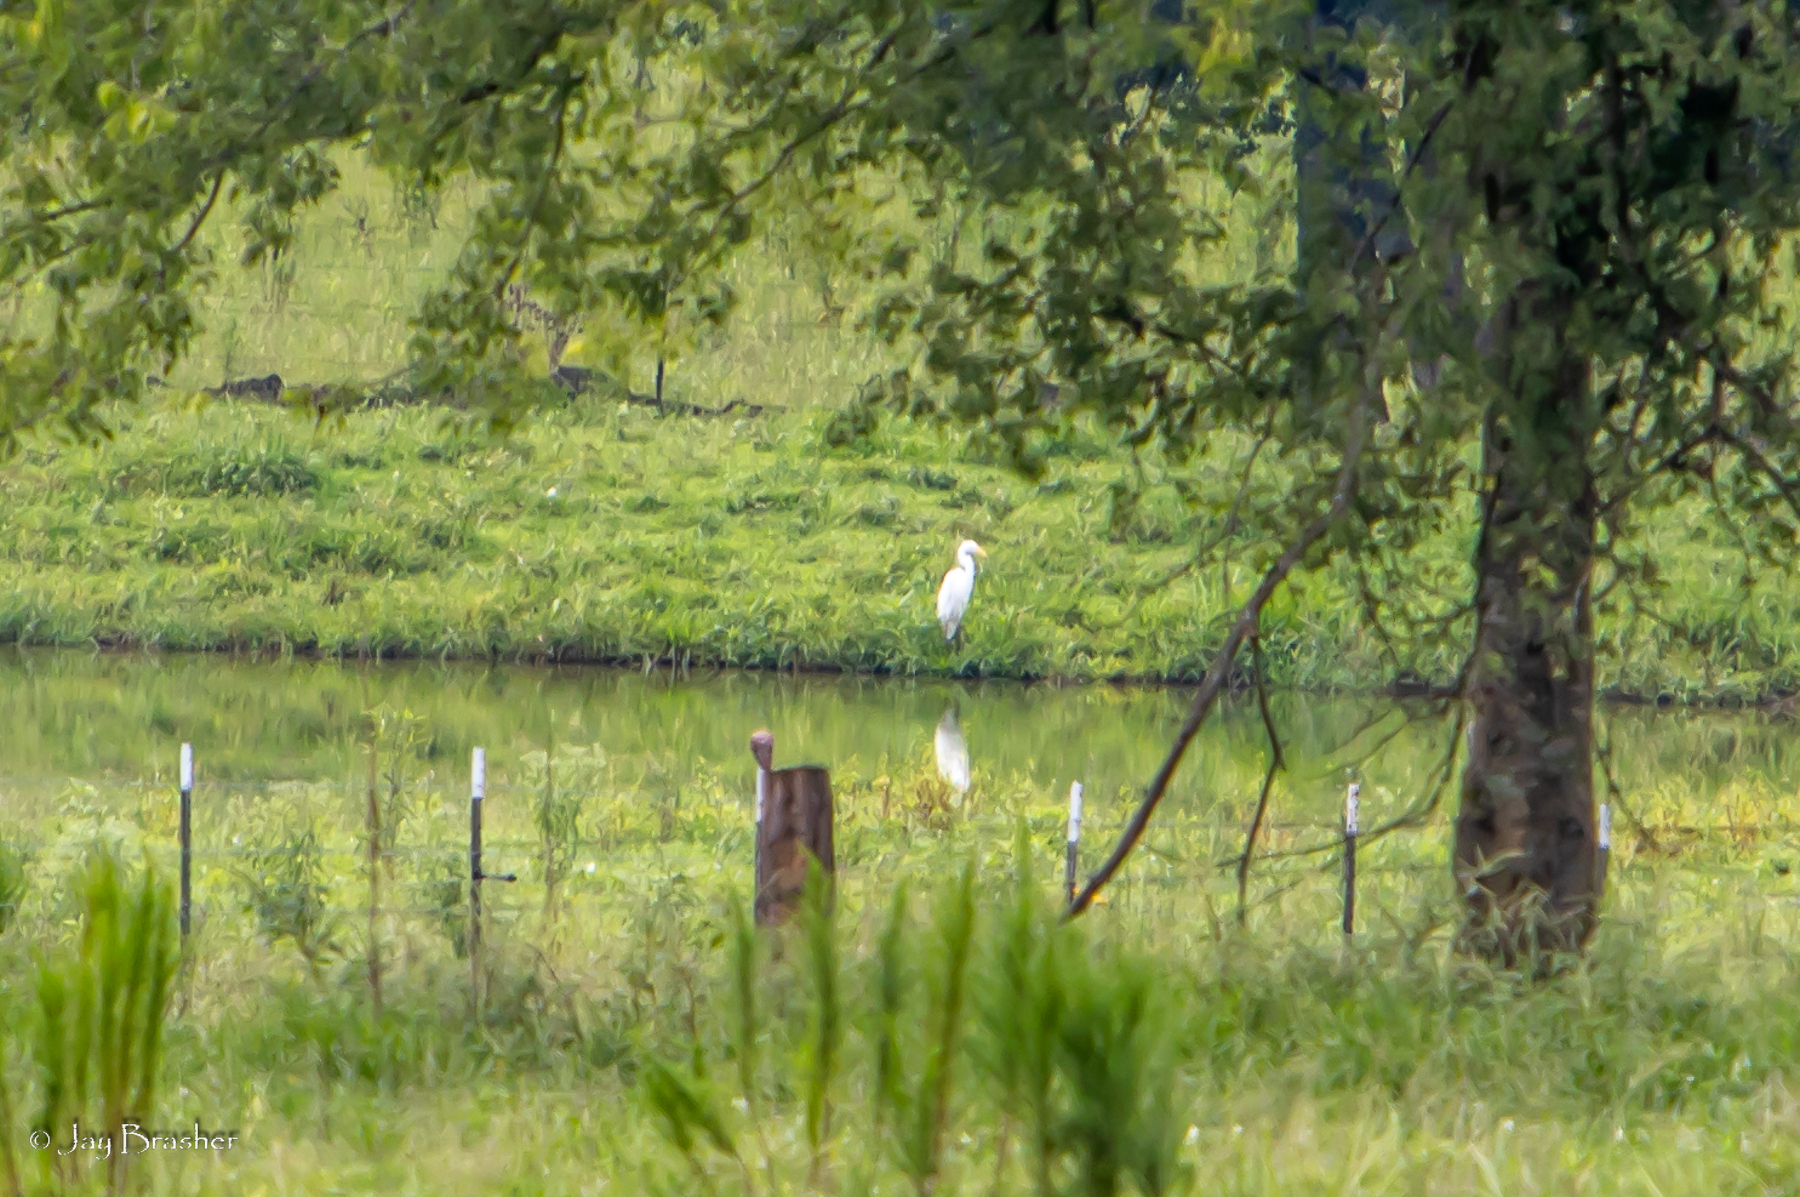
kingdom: Animalia
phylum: Chordata
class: Aves
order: Pelecaniformes
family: Ardeidae
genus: Ardea
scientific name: Ardea alba
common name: Great egret
